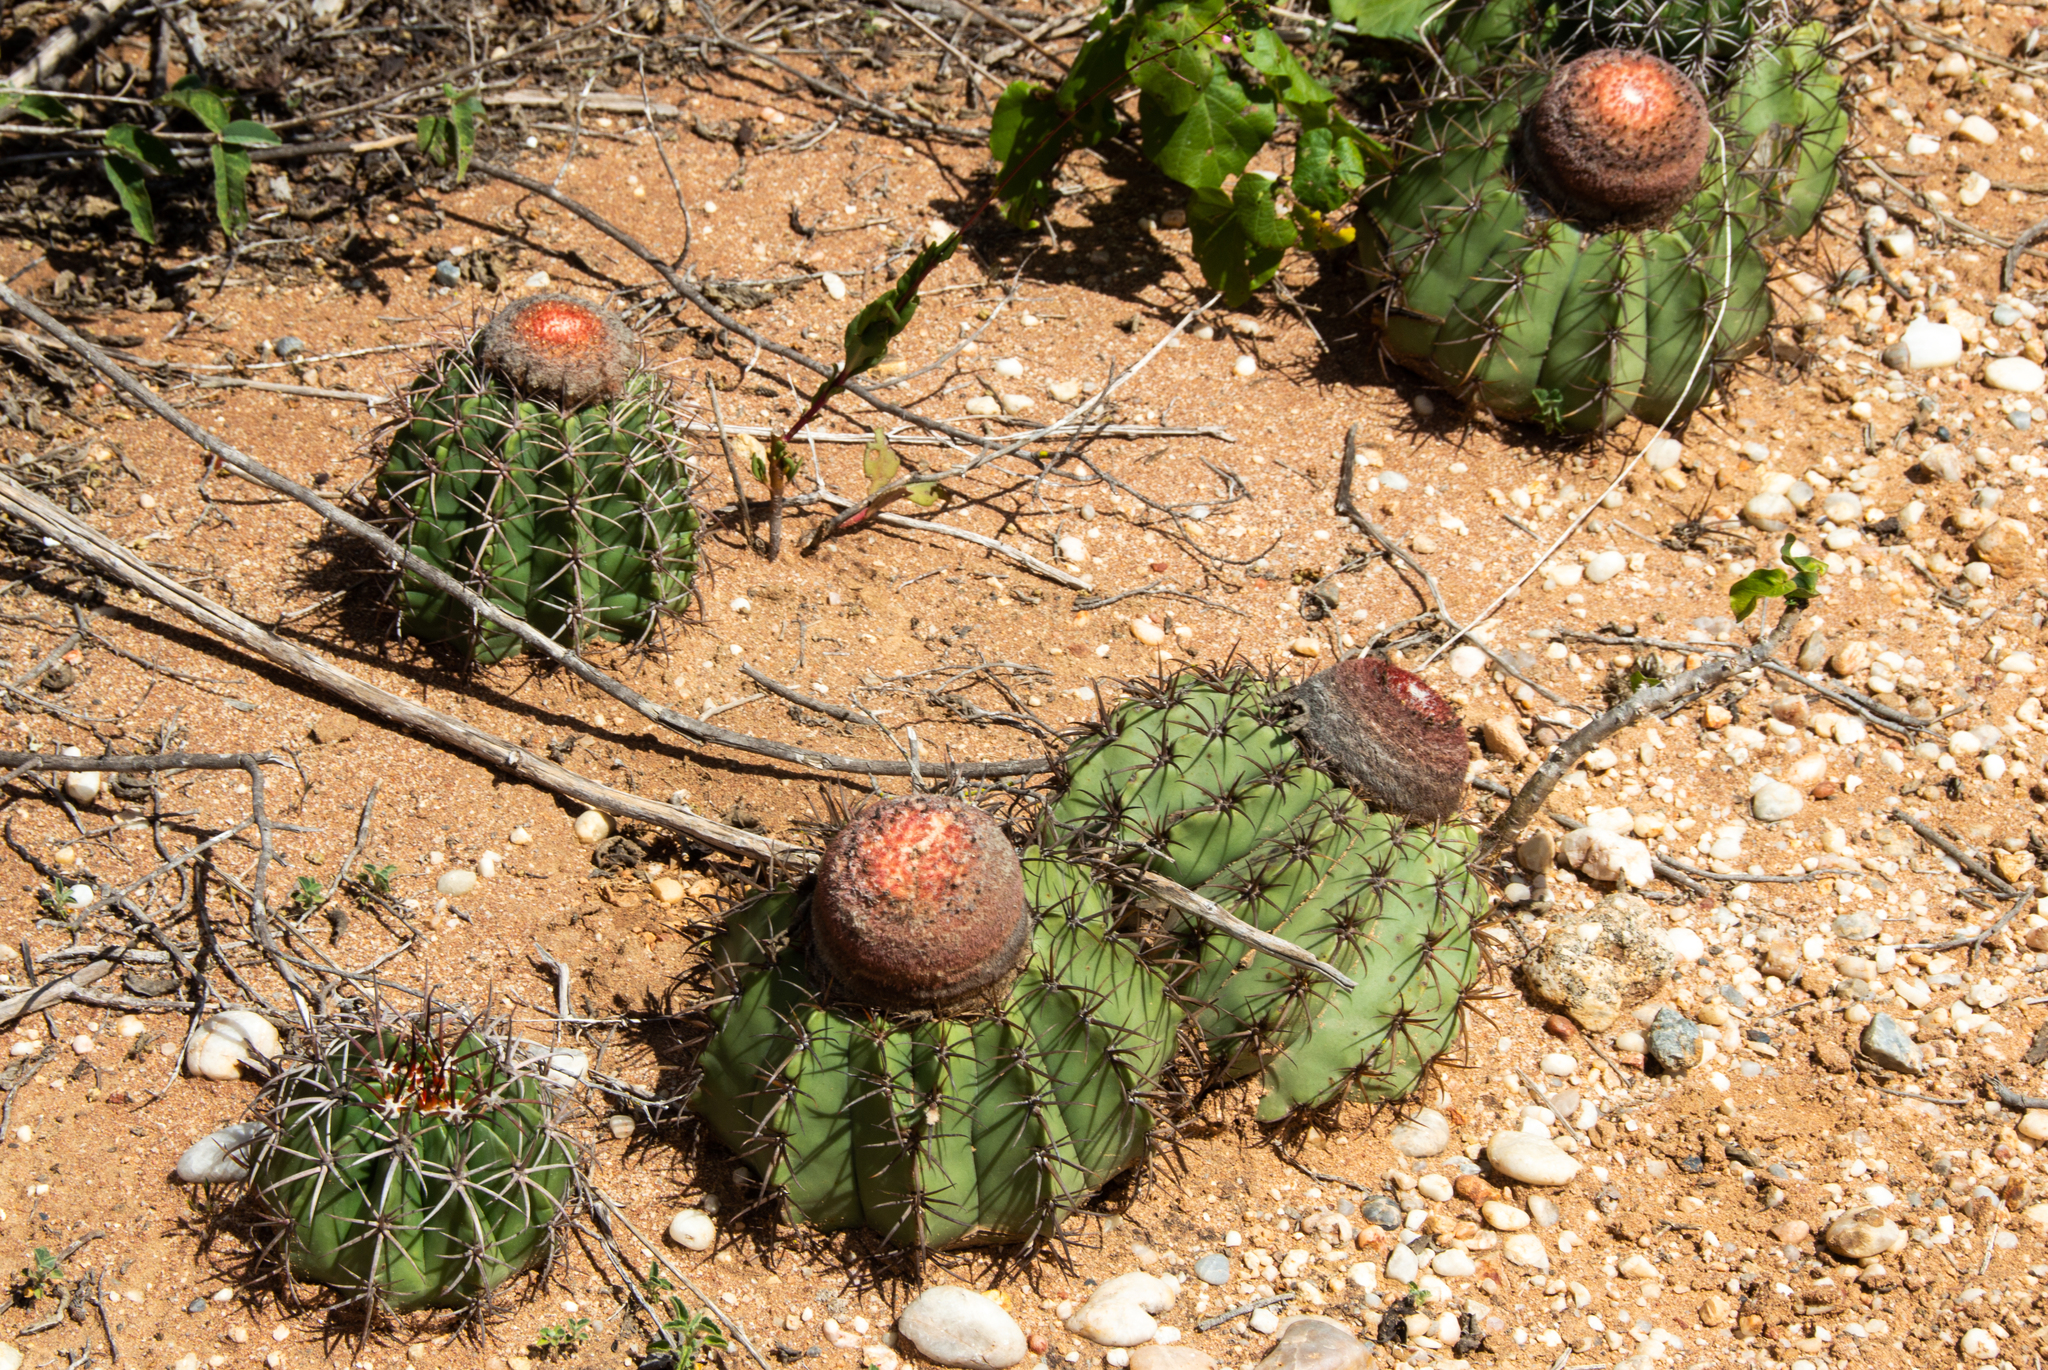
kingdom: Plantae
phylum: Tracheophyta
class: Magnoliopsida
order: Caryophyllales
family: Cactaceae
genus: Melocactus
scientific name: Melocactus zehntneri
